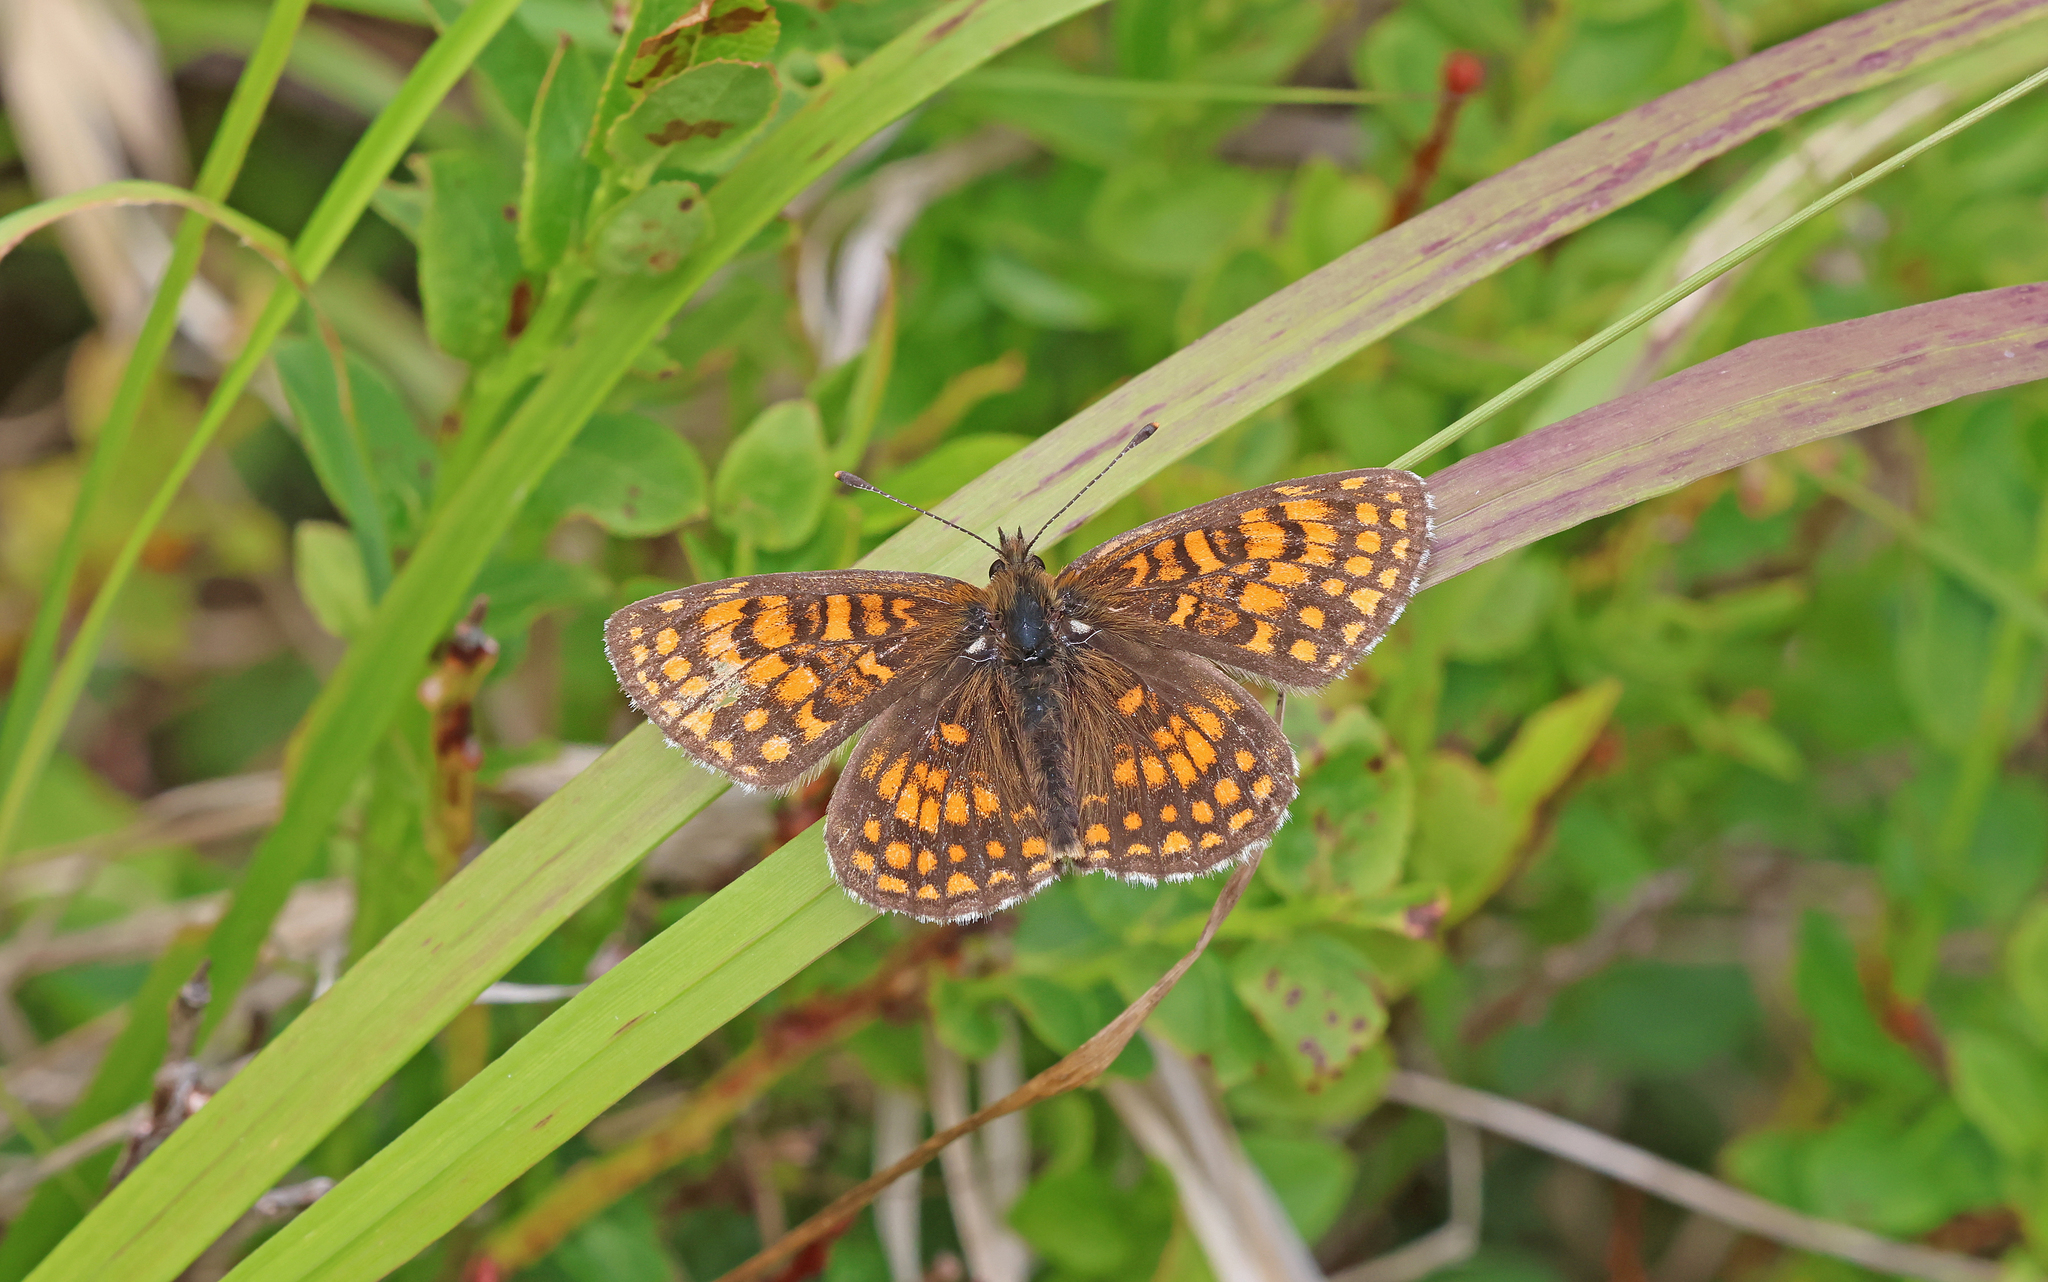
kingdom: Animalia
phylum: Arthropoda
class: Insecta
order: Lepidoptera
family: Nymphalidae
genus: Melitaea
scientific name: Melitaea athalia
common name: Heath fritillary
